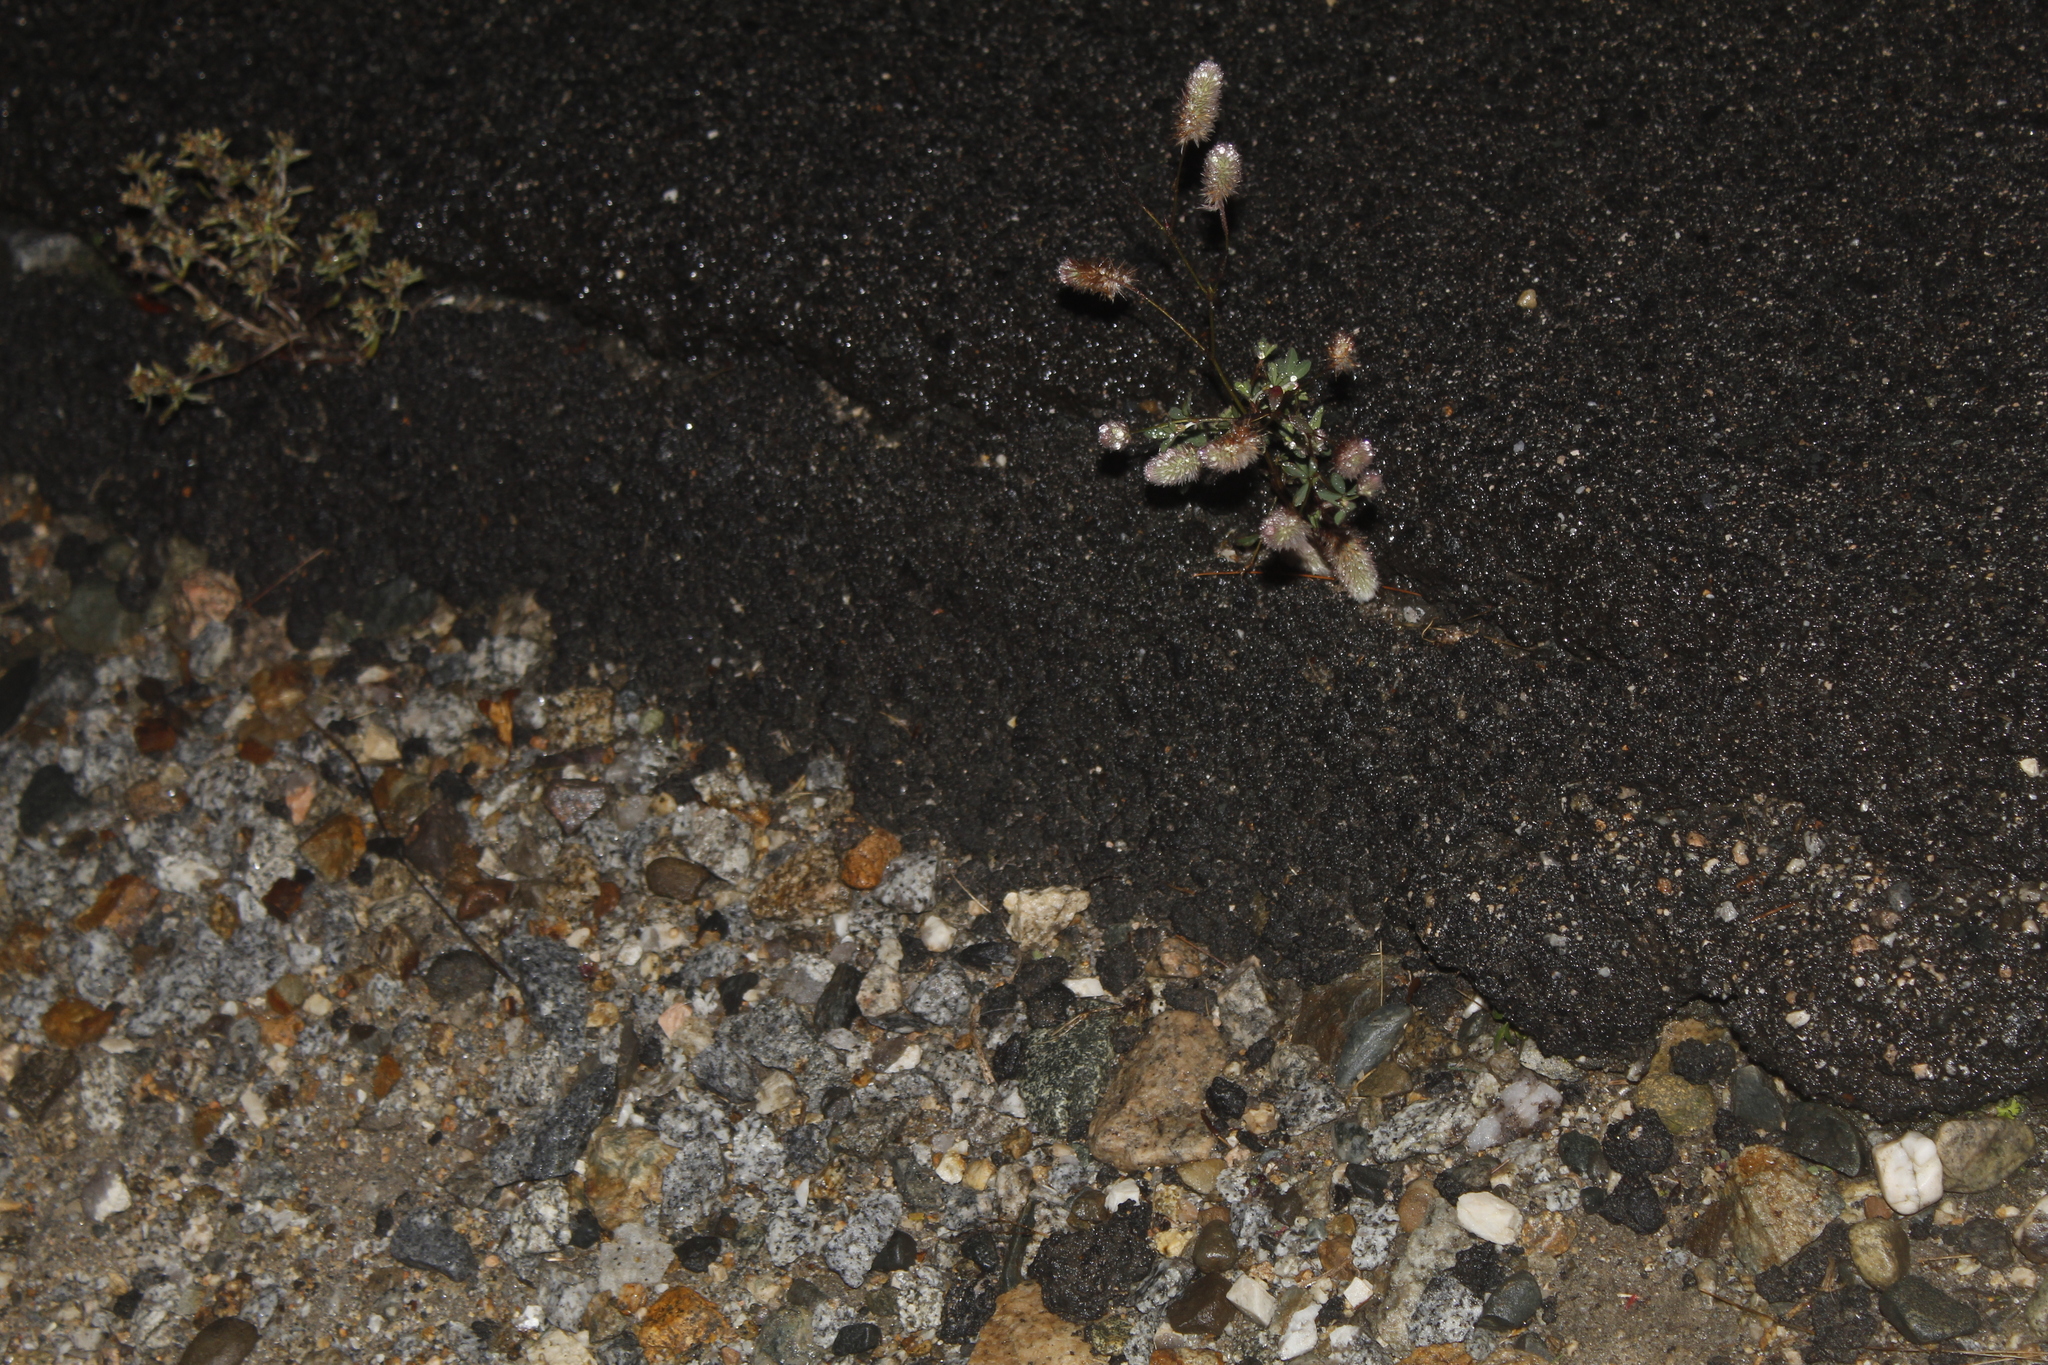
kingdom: Plantae
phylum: Tracheophyta
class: Magnoliopsida
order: Fabales
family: Fabaceae
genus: Trifolium
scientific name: Trifolium arvense
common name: Hare's-foot clover
